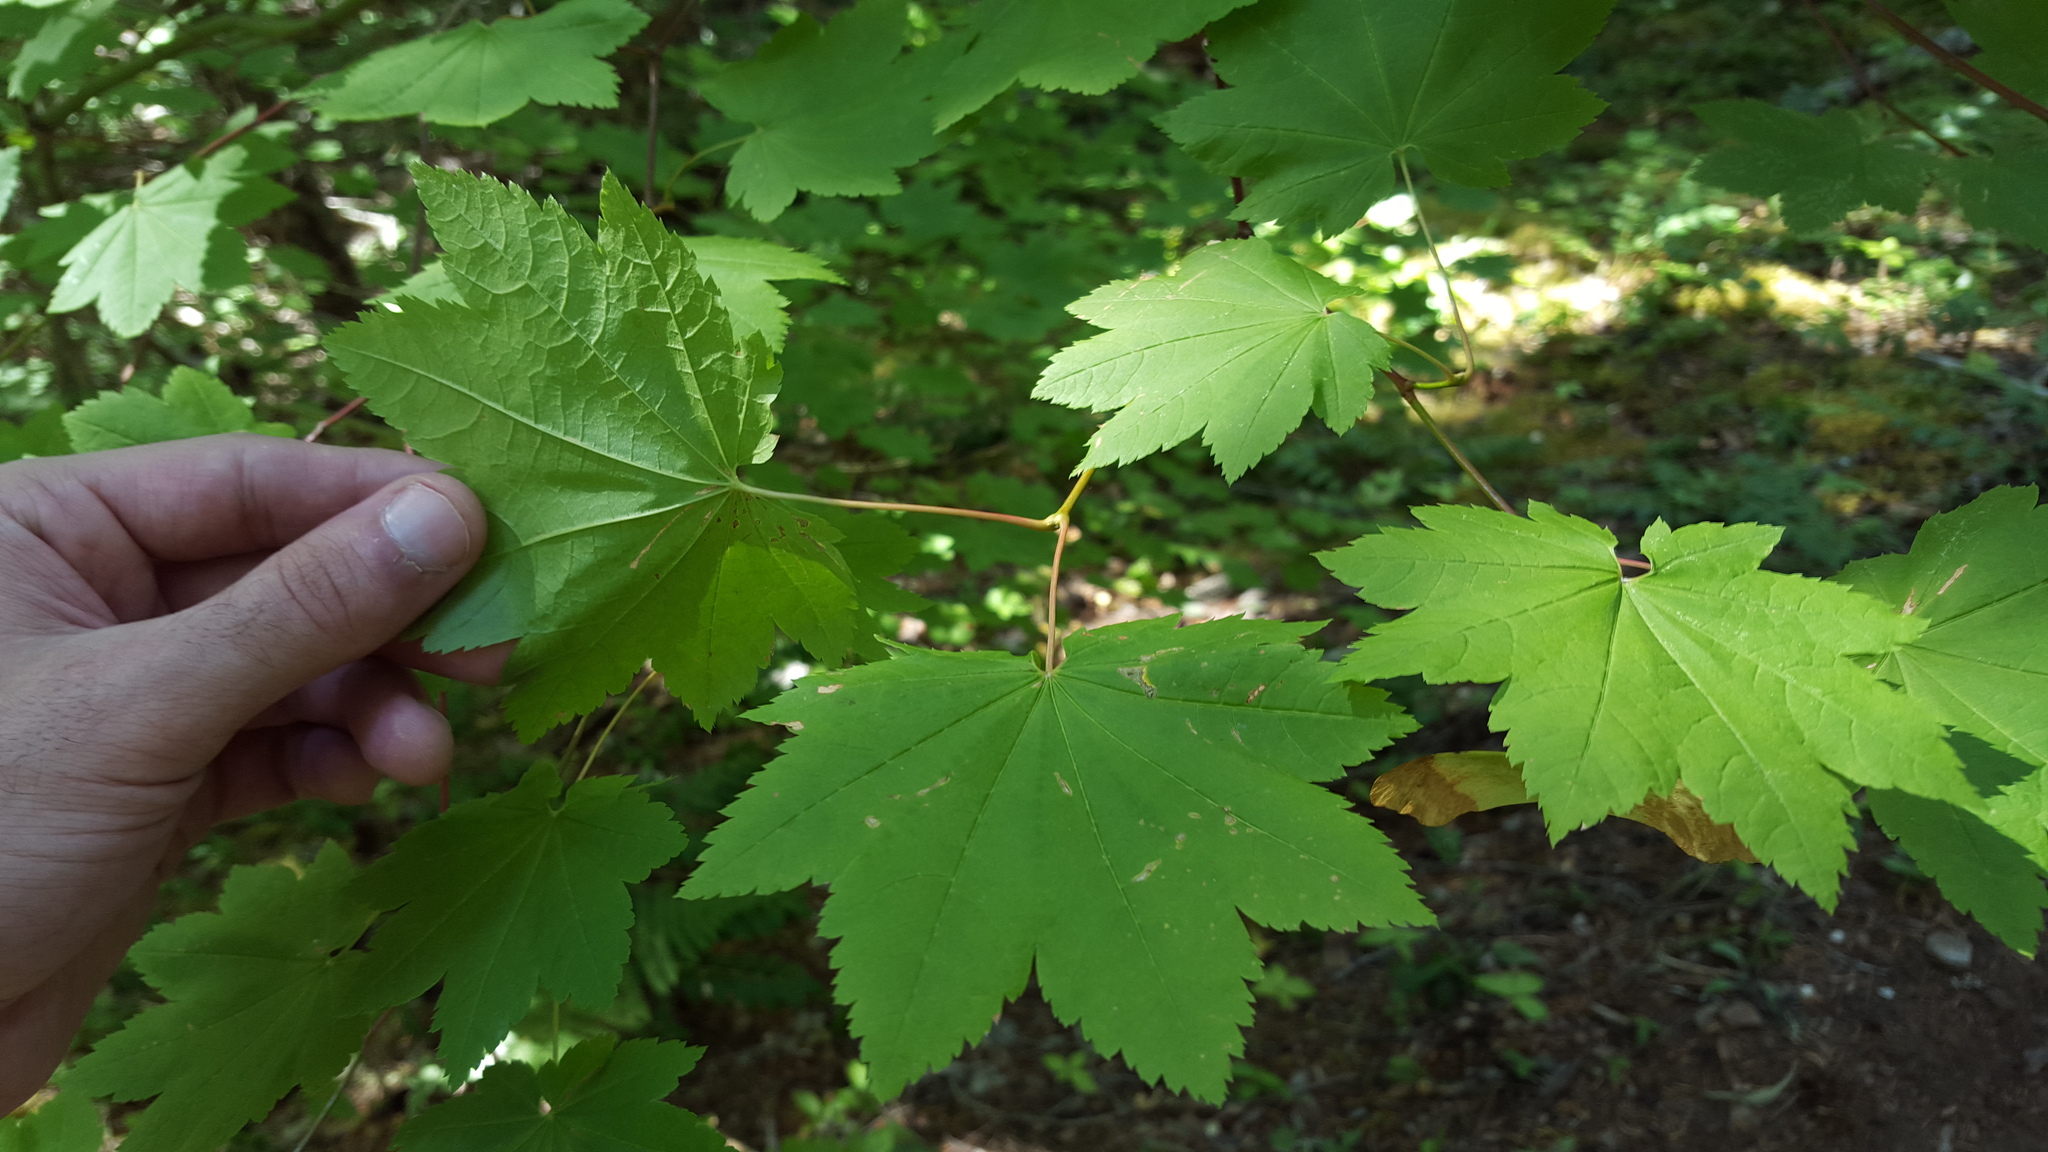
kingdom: Plantae
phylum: Tracheophyta
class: Magnoliopsida
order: Sapindales
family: Sapindaceae
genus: Acer
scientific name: Acer circinatum
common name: Vine maple
